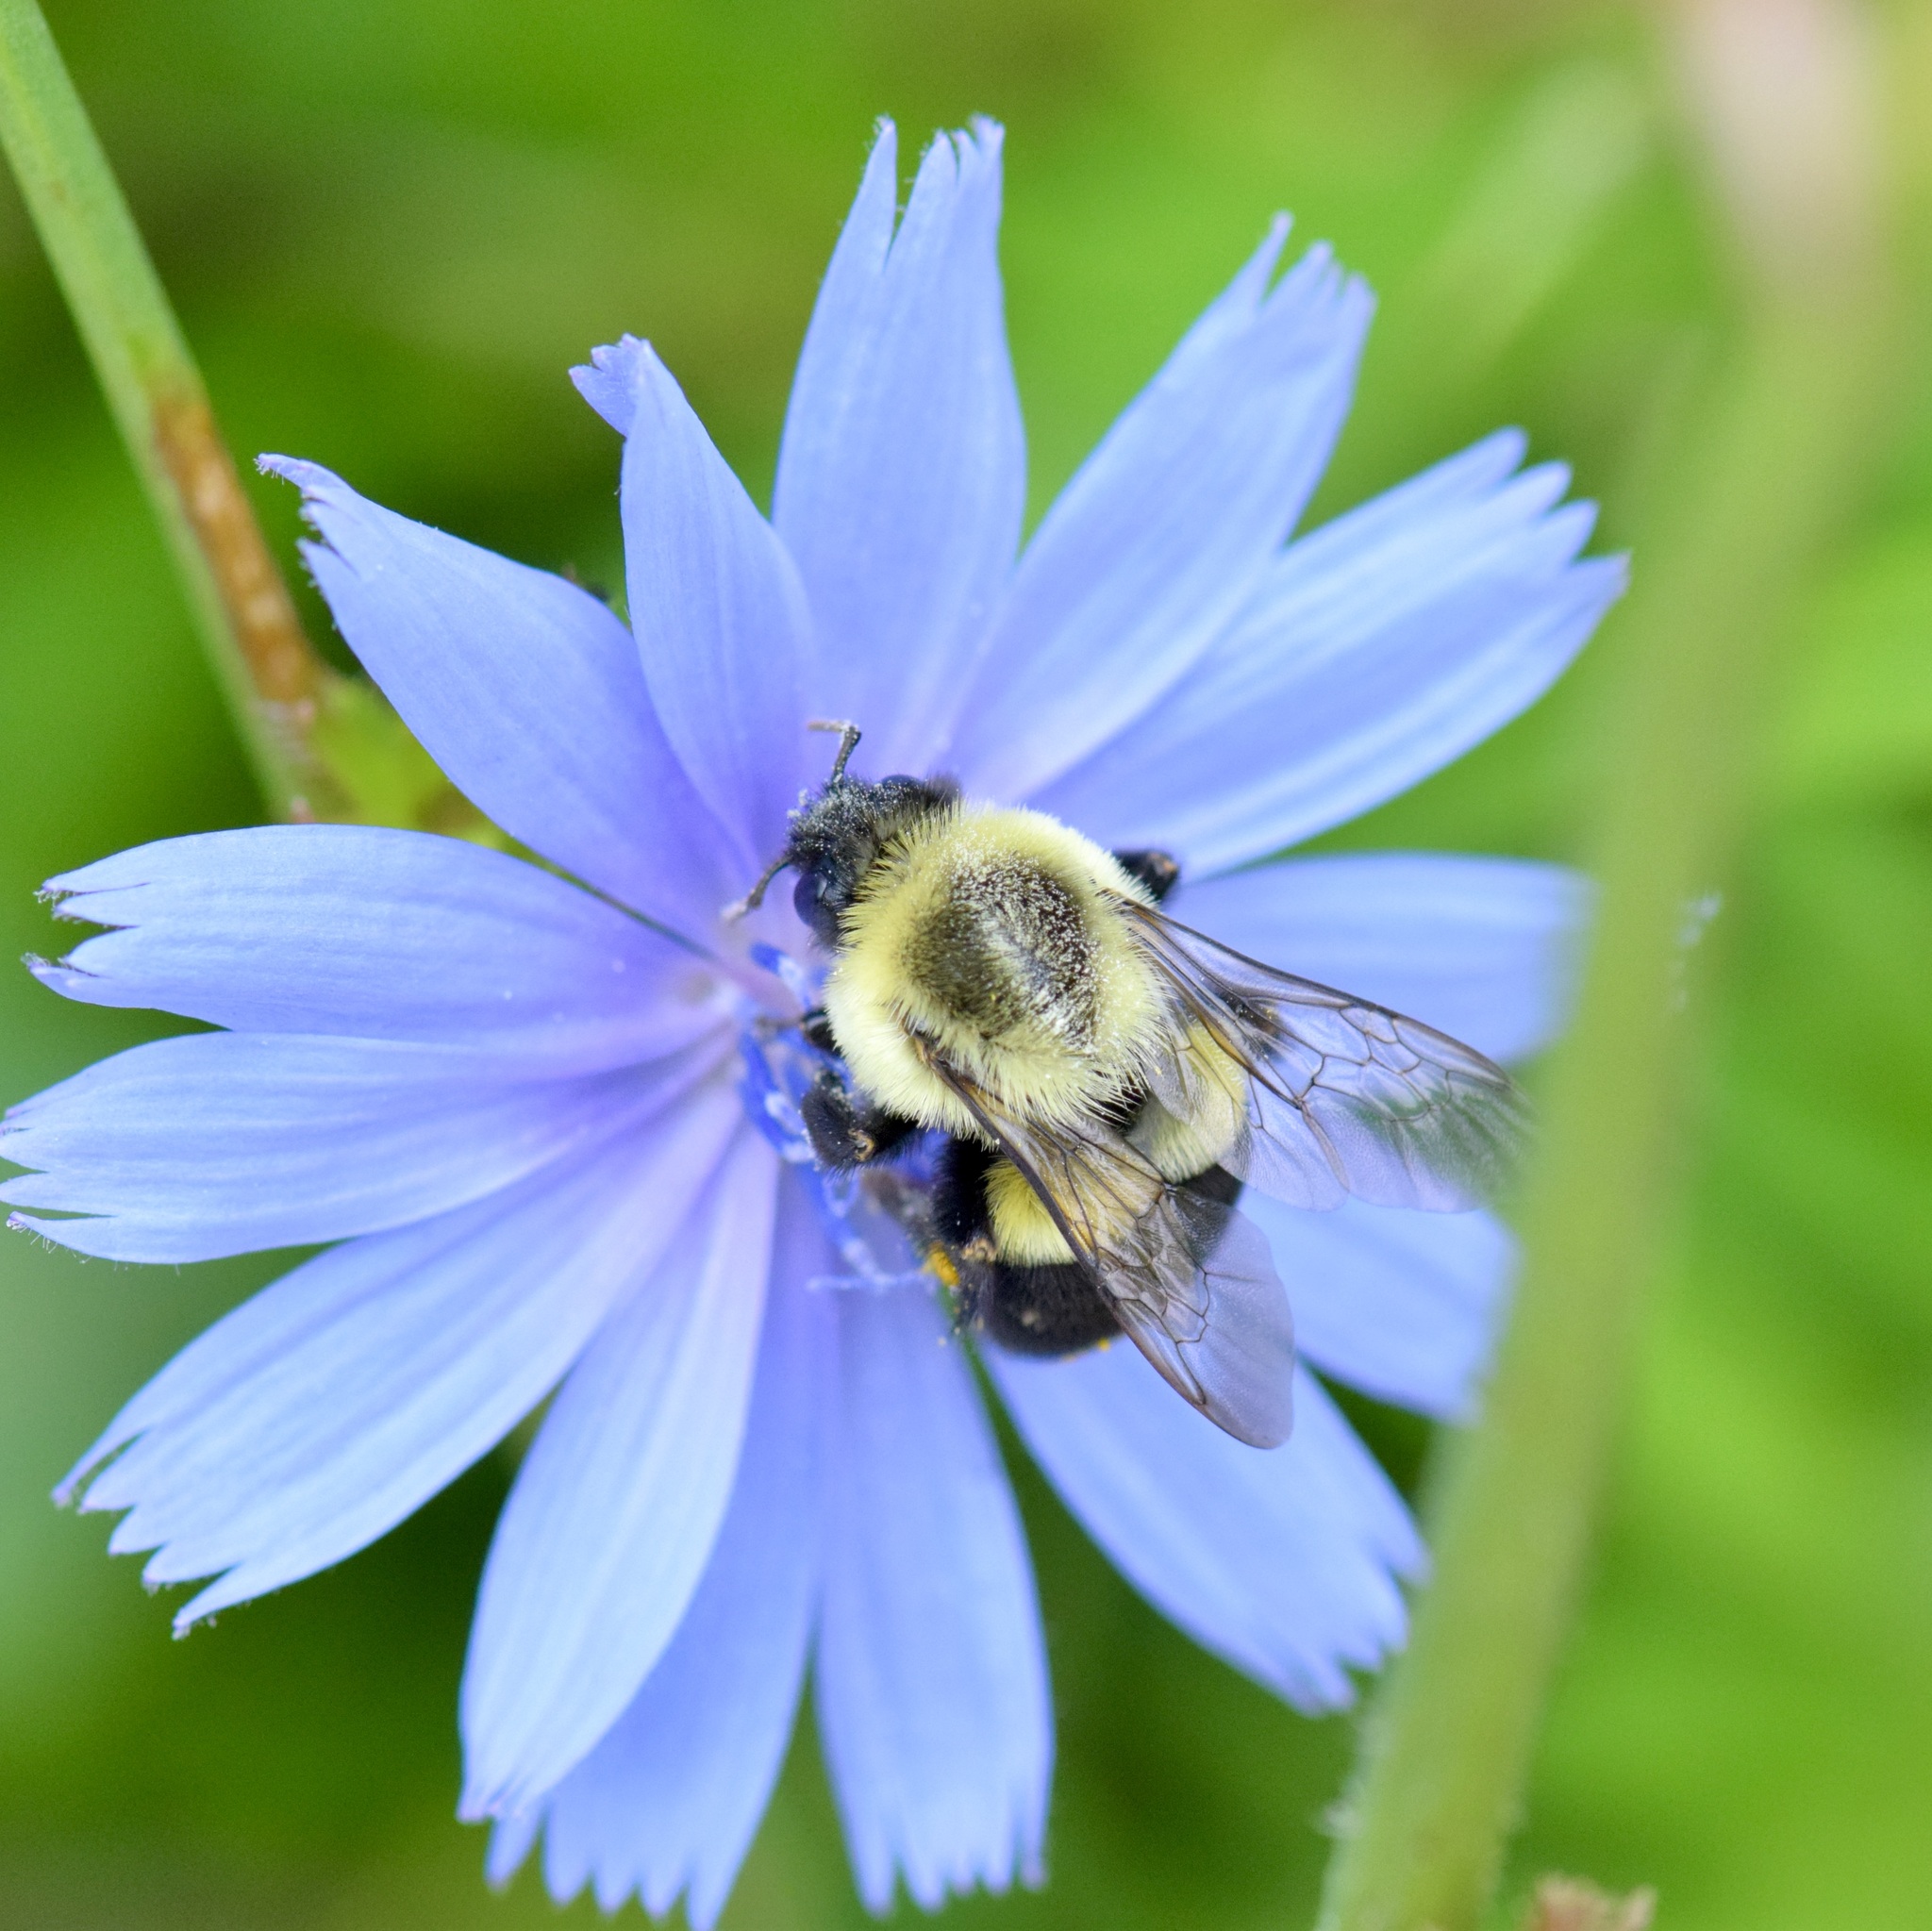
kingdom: Animalia
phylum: Arthropoda
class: Insecta
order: Hymenoptera
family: Apidae
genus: Bombus
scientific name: Bombus impatiens
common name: Common eastern bumble bee
